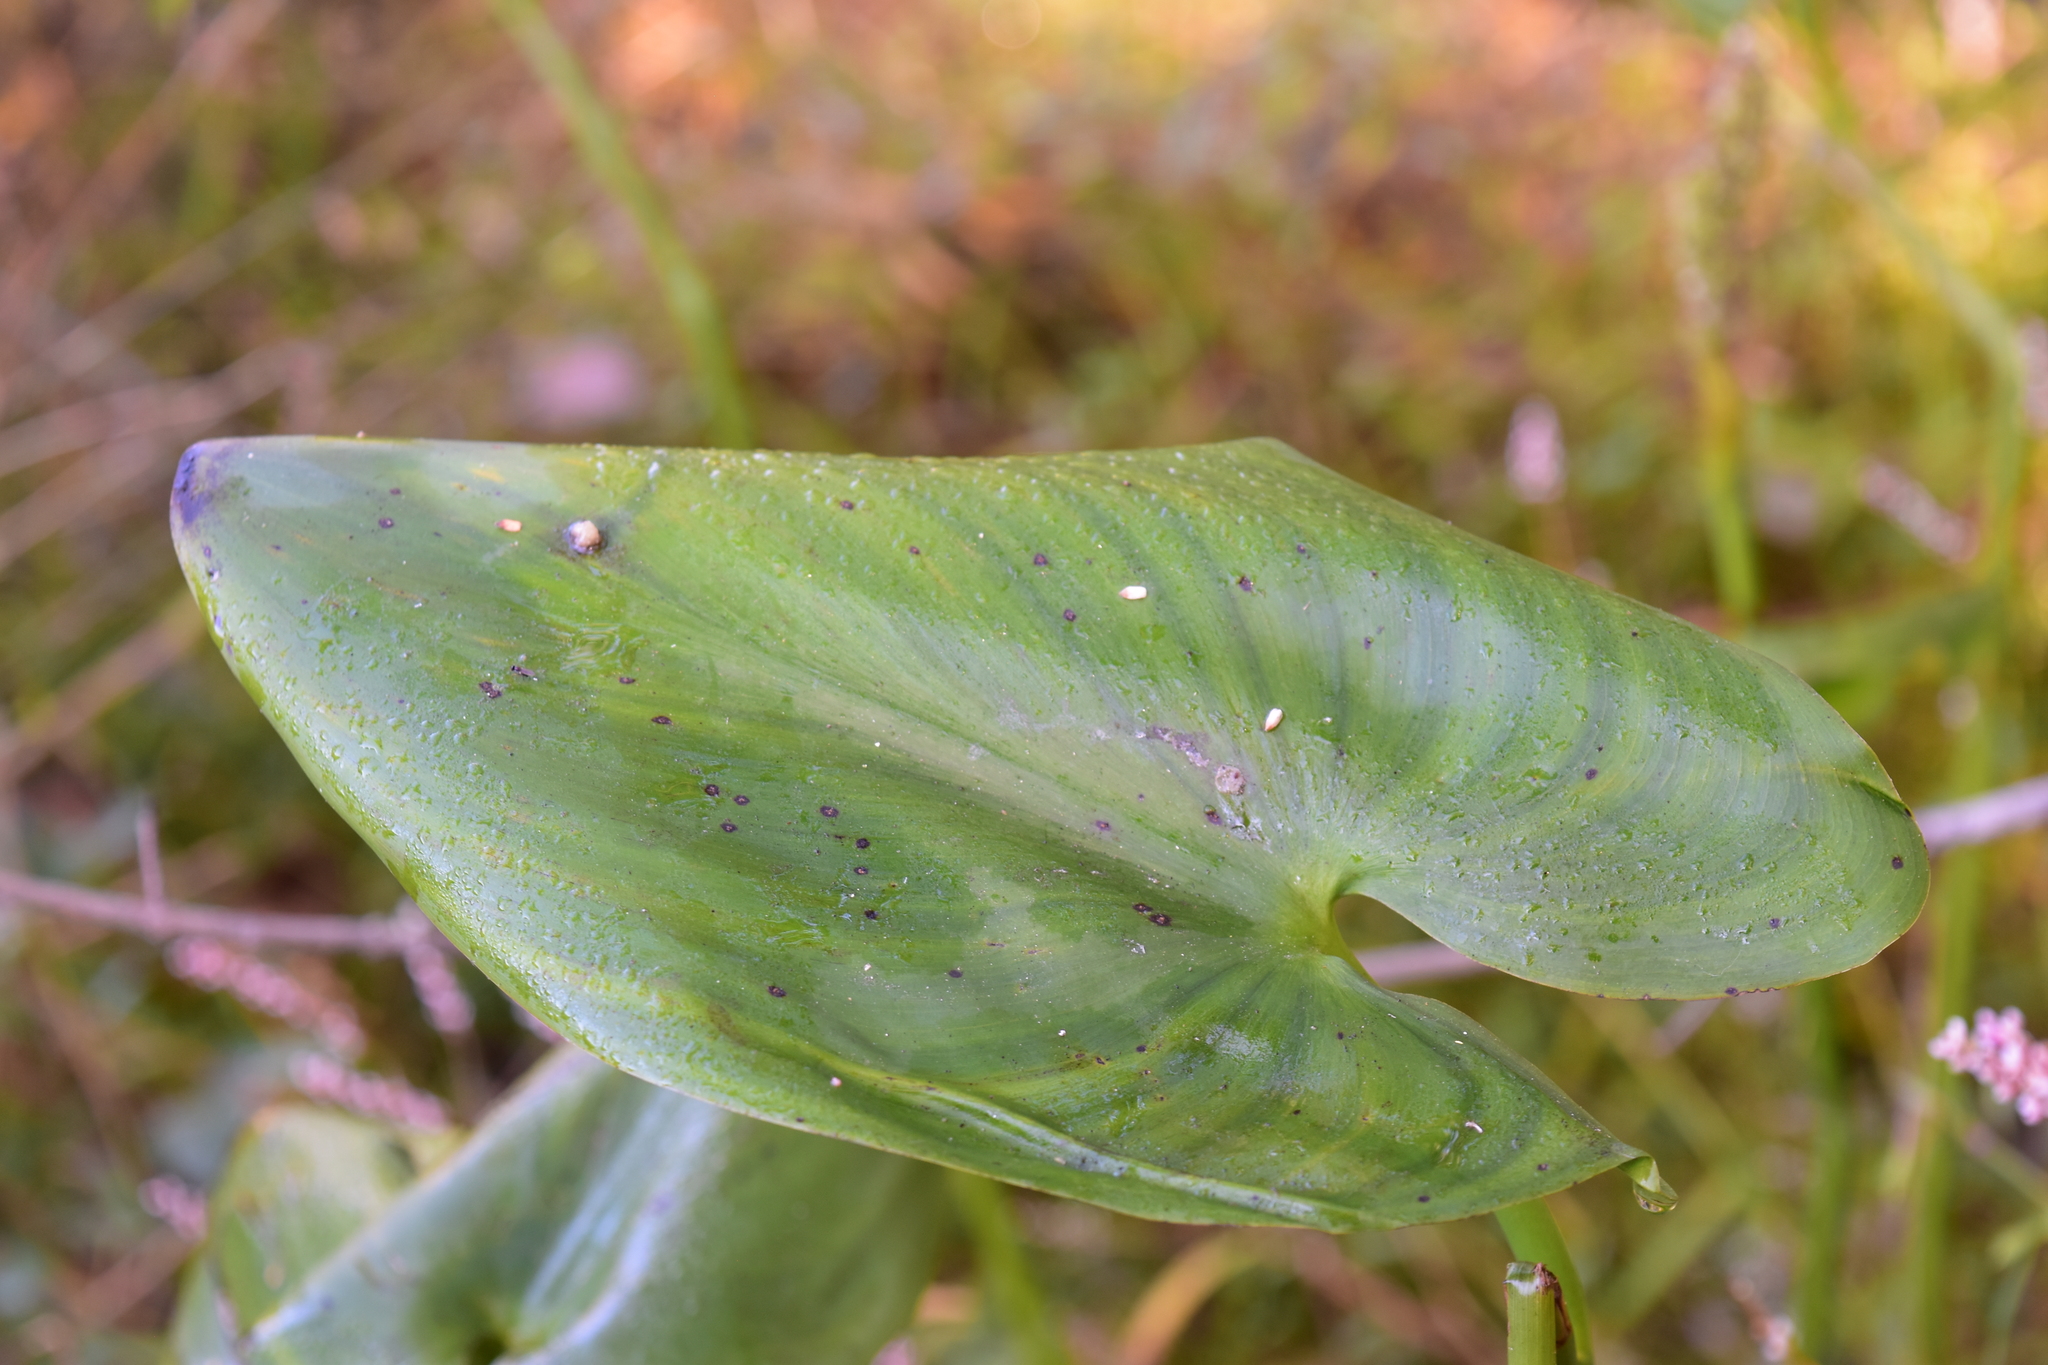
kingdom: Plantae
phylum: Tracheophyta
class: Liliopsida
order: Commelinales
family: Pontederiaceae
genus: Pontederia
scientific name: Pontederia cordata
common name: Pickerelweed
